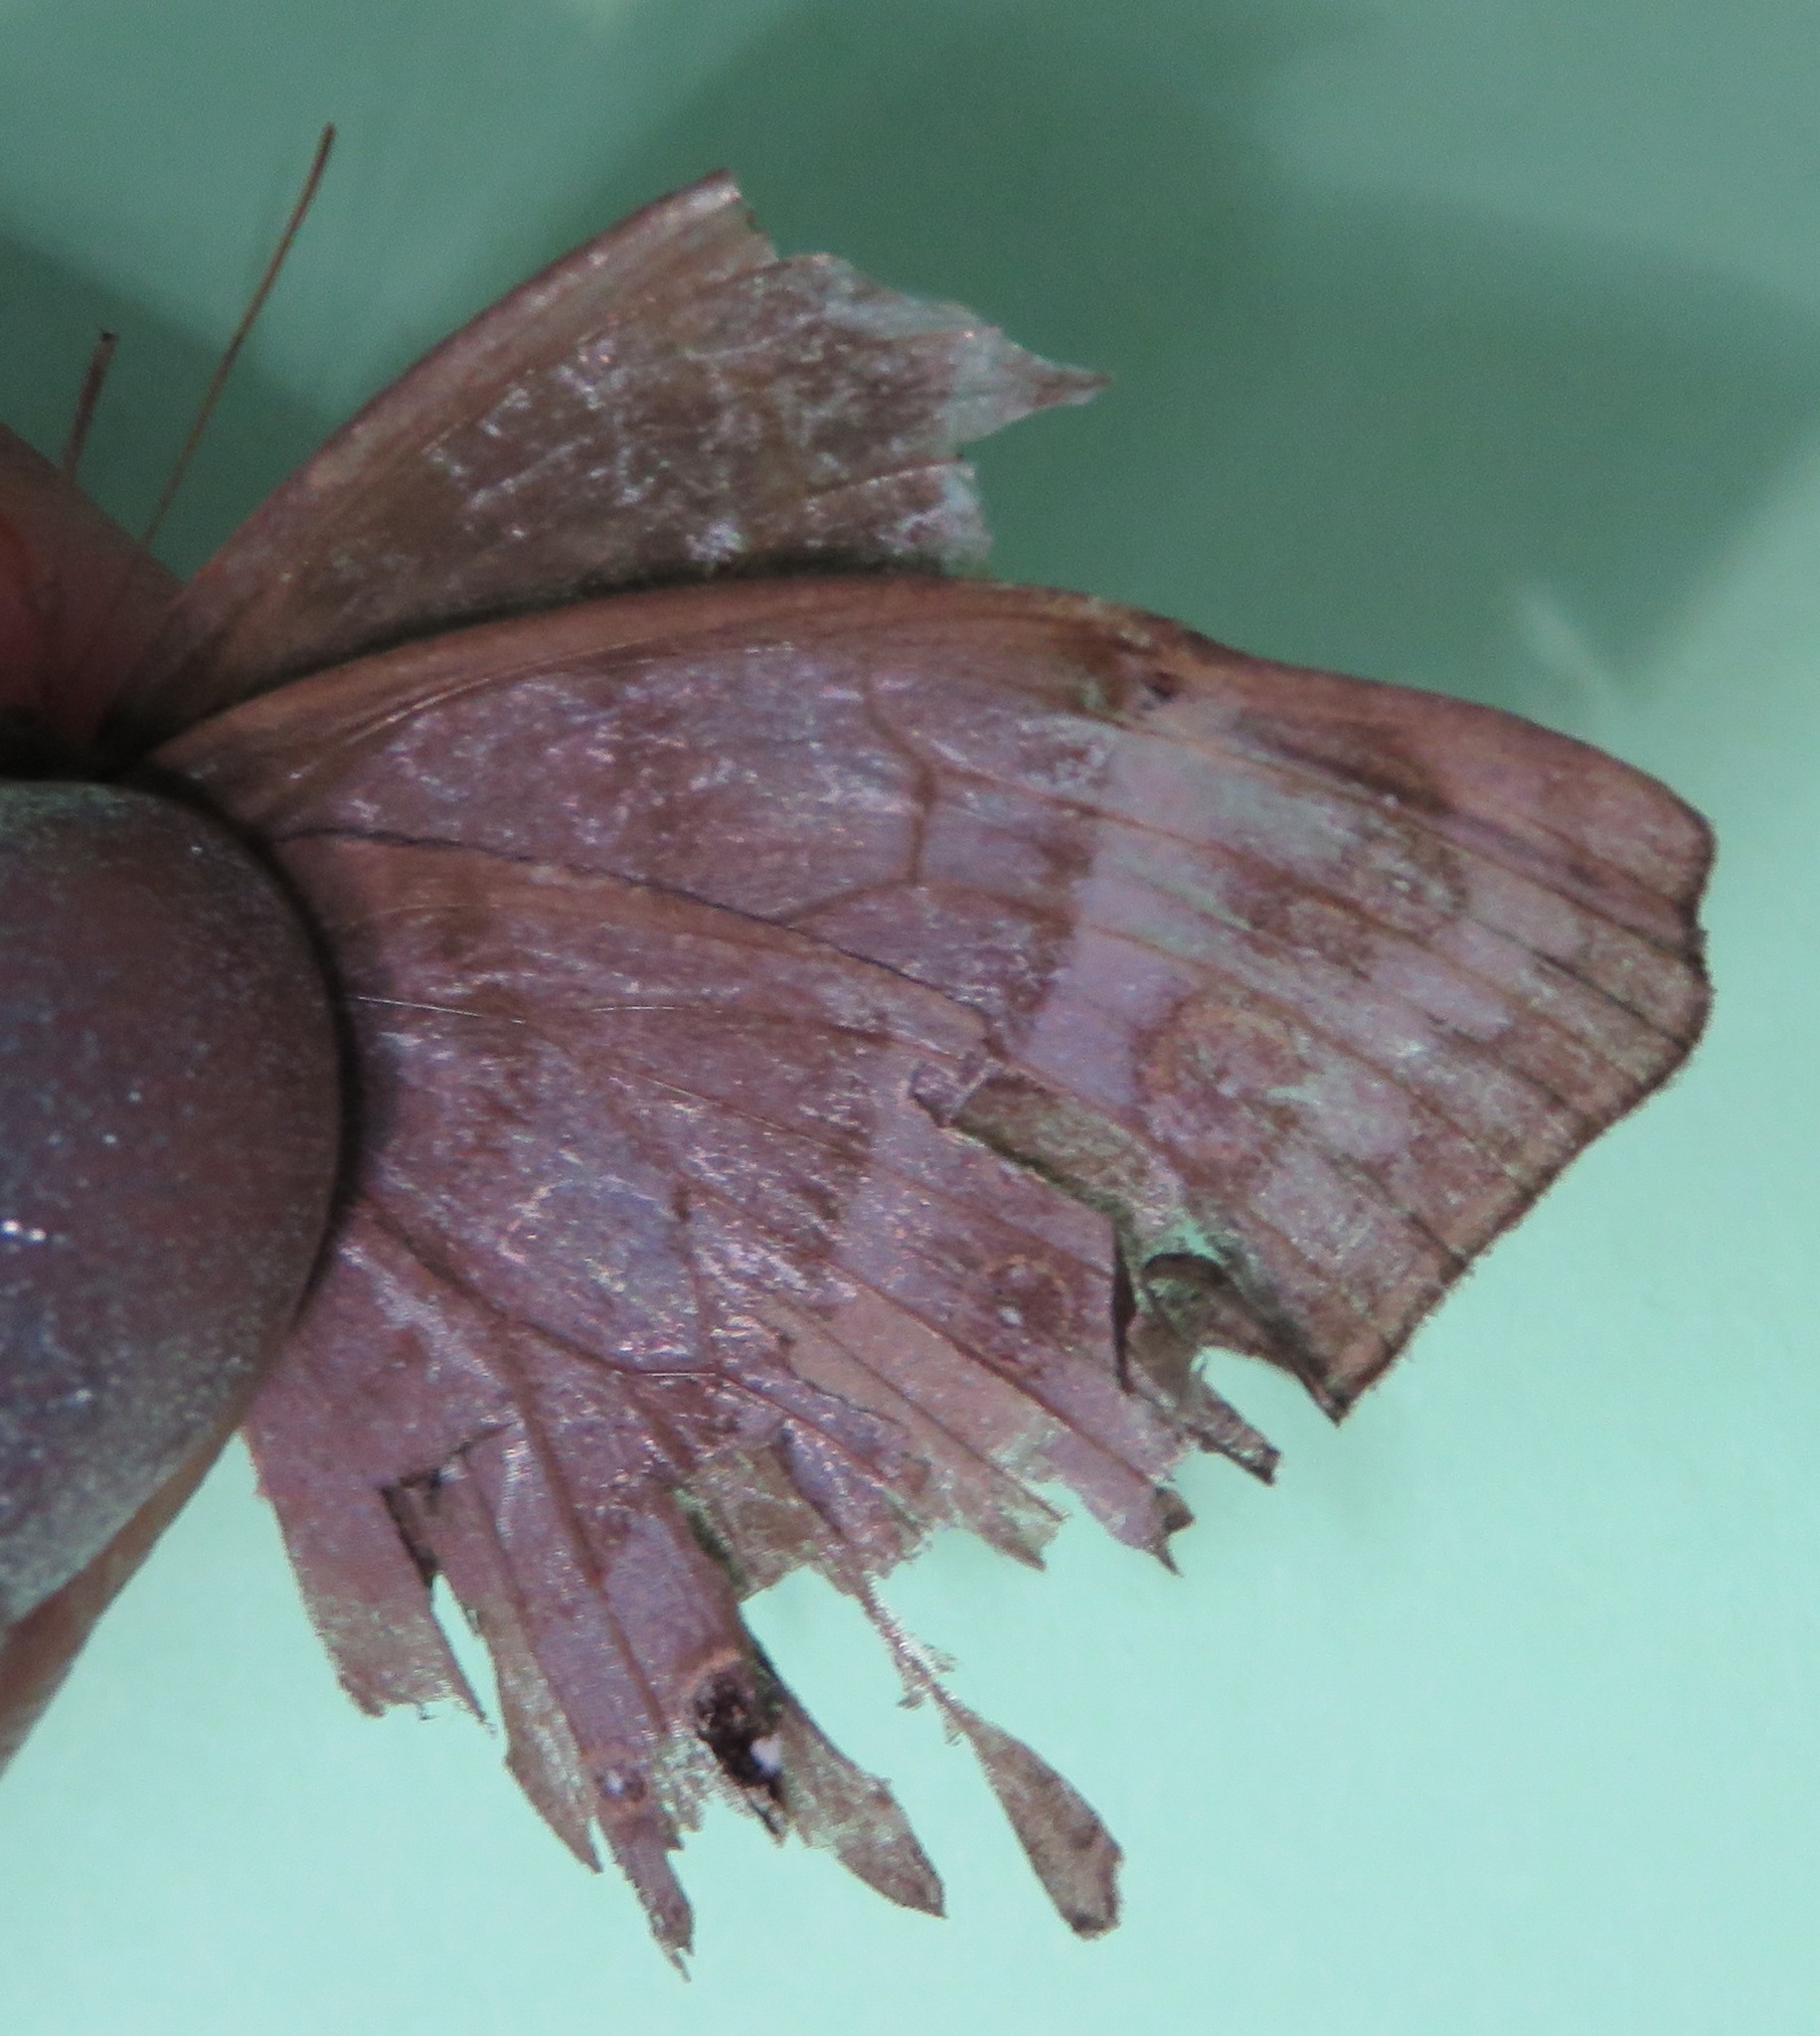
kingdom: Animalia
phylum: Arthropoda
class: Insecta
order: Lepidoptera
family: Nymphalidae
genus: Taygetis
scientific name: Taygetis inconspicua
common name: Inconspicuous satyr
